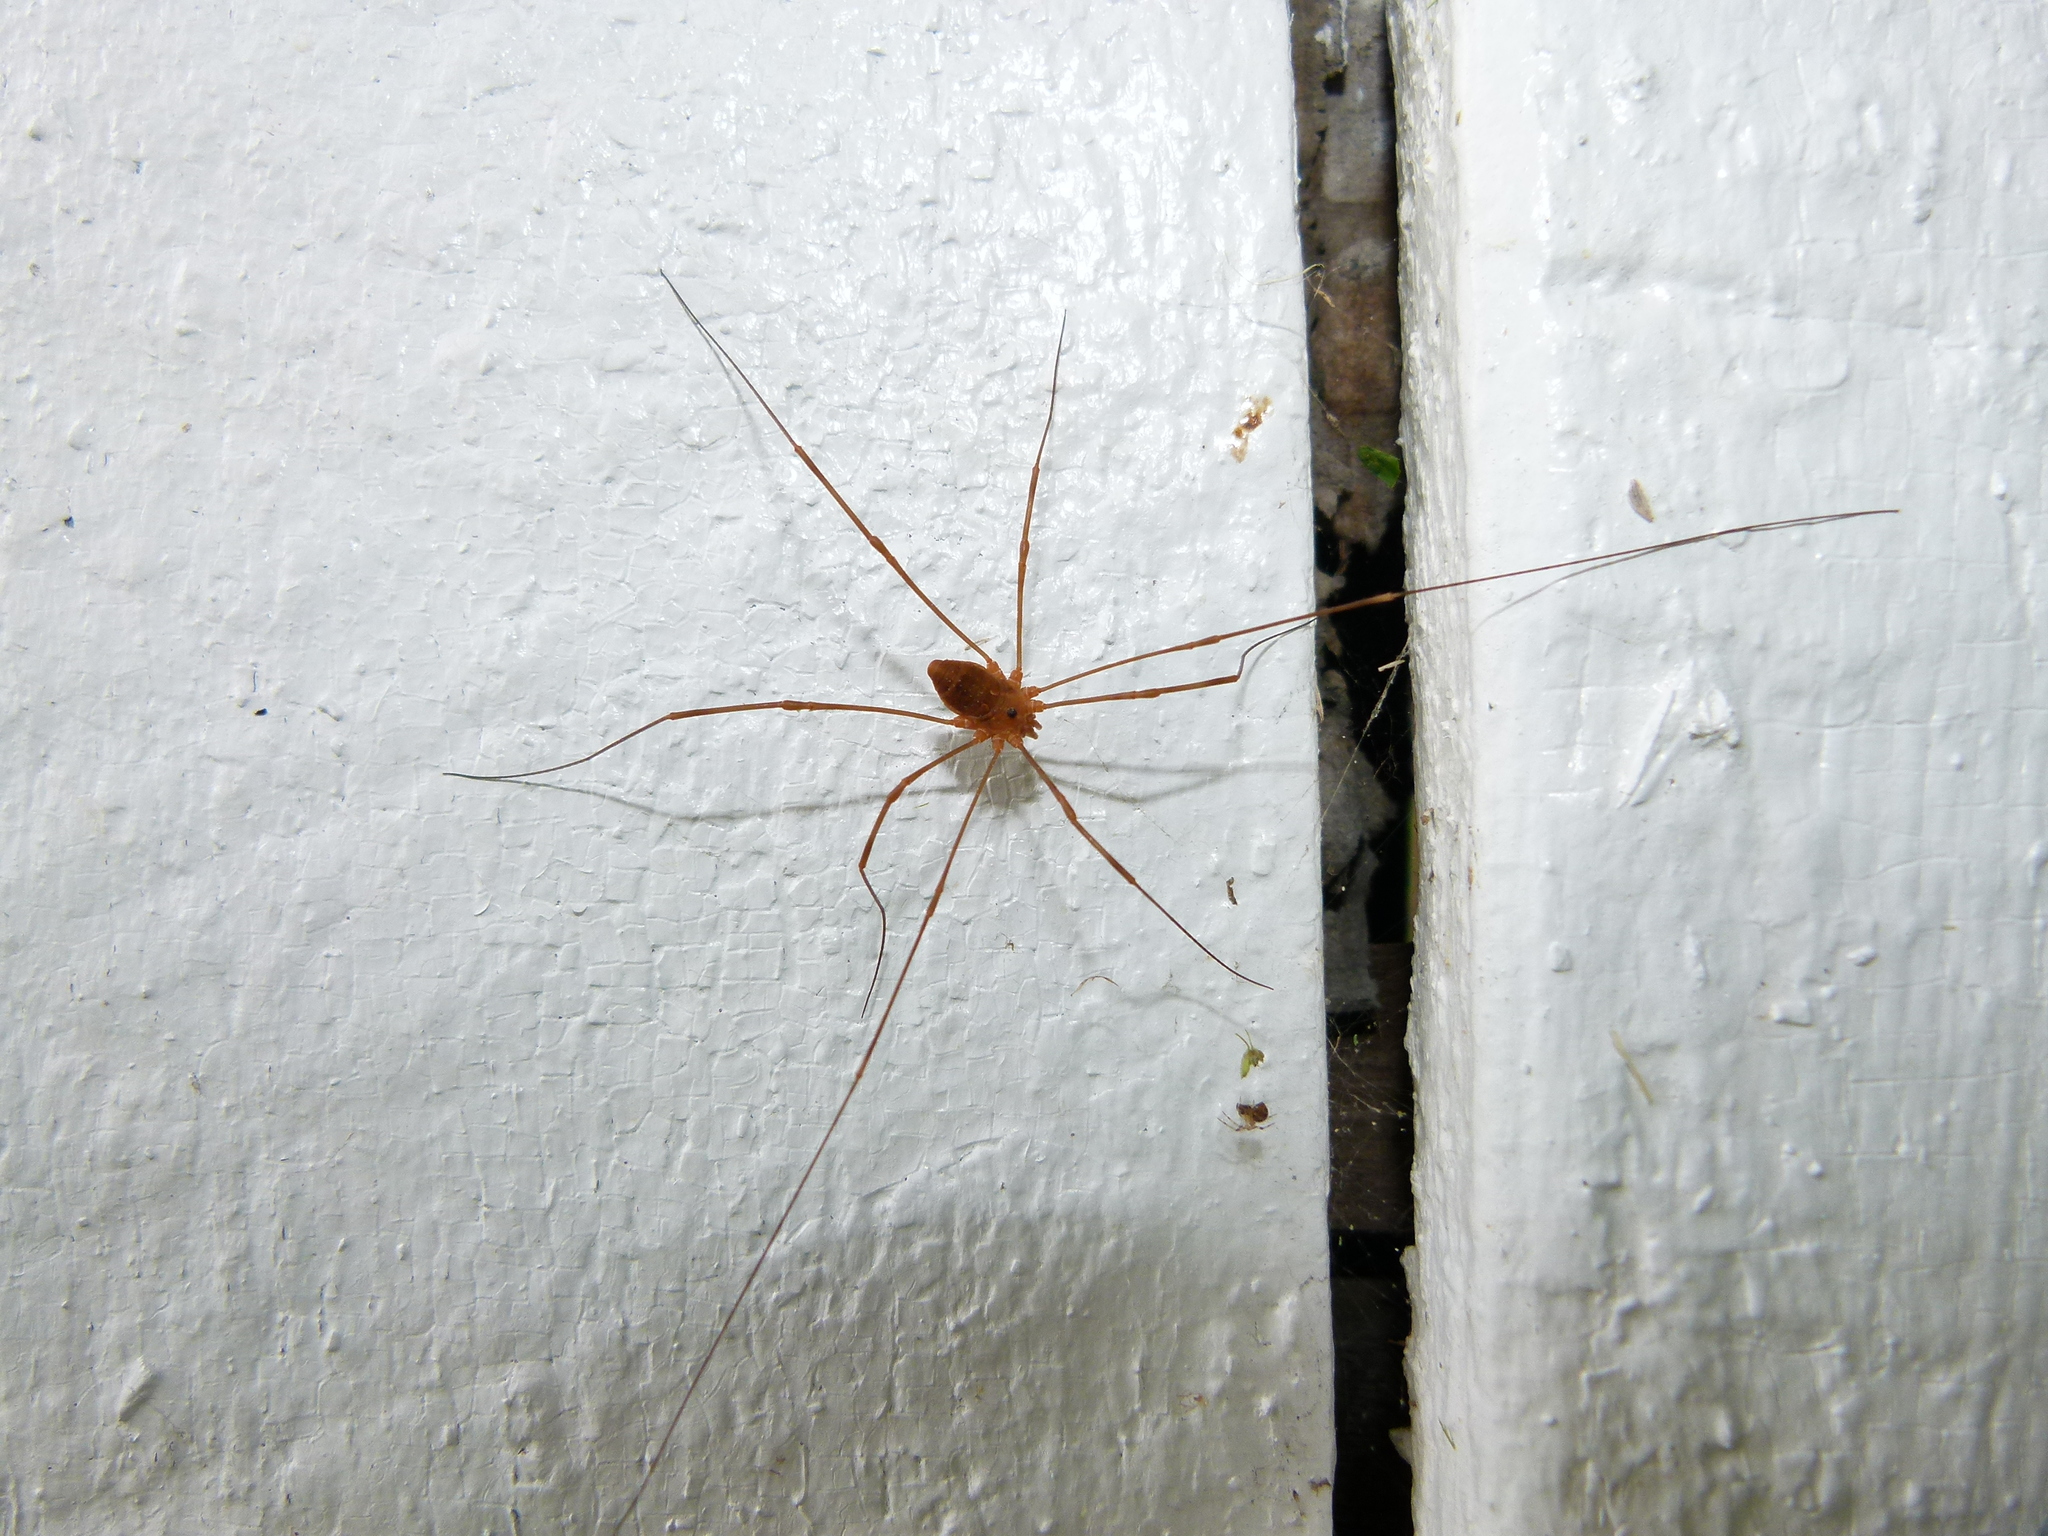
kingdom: Animalia
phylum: Arthropoda
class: Arachnida
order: Opiliones
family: Sclerosomatidae
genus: Leiobunum
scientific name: Leiobunum ventricosum
